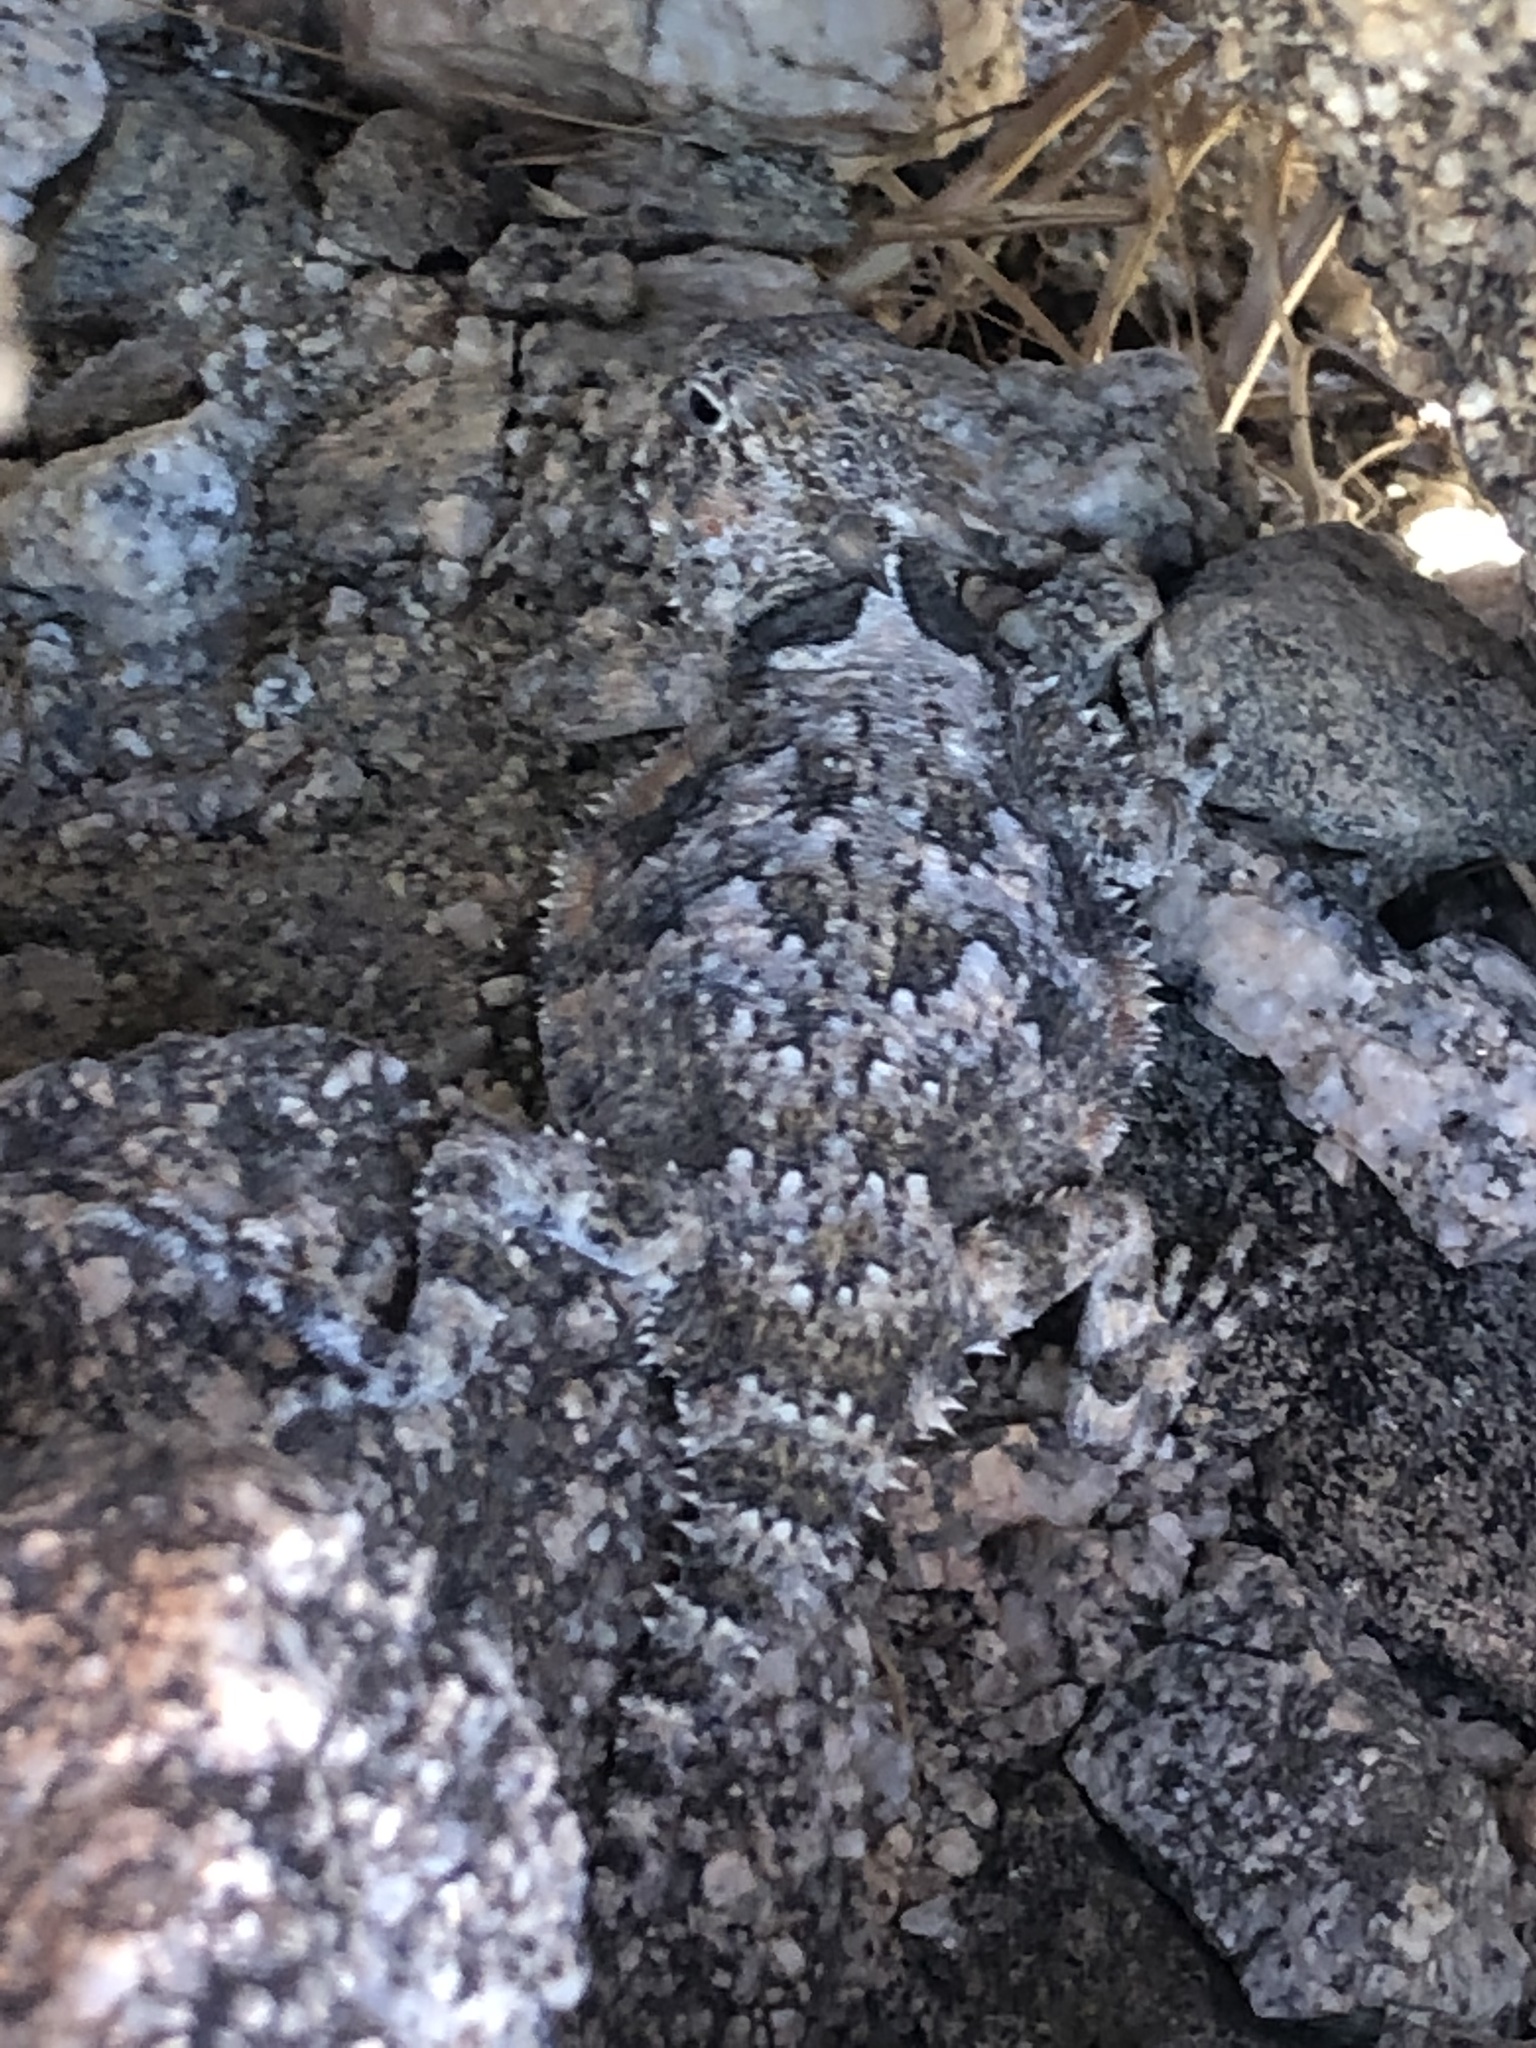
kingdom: Animalia
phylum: Chordata
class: Squamata
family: Phrynosomatidae
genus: Phrynosoma
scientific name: Phrynosoma platyrhinos
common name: Desert horned lizard
